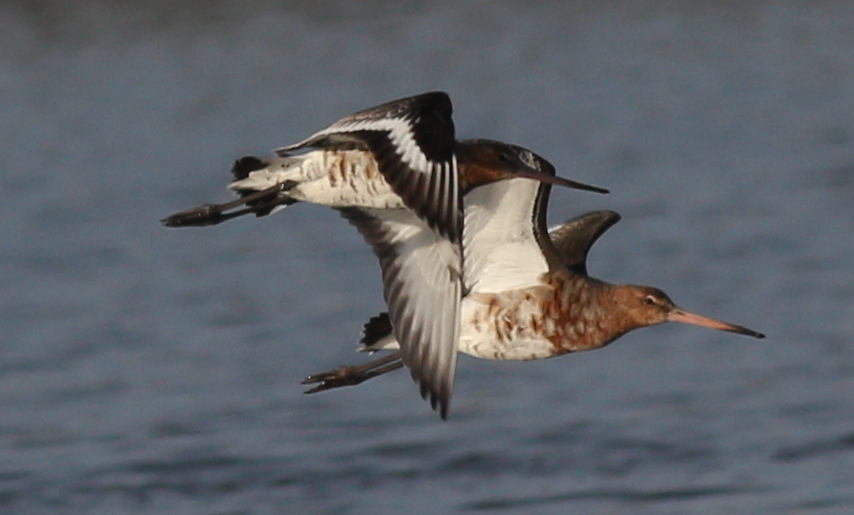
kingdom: Animalia
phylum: Chordata
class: Aves
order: Charadriiformes
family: Scolopacidae
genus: Limosa
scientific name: Limosa limosa
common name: Black-tailed godwit
